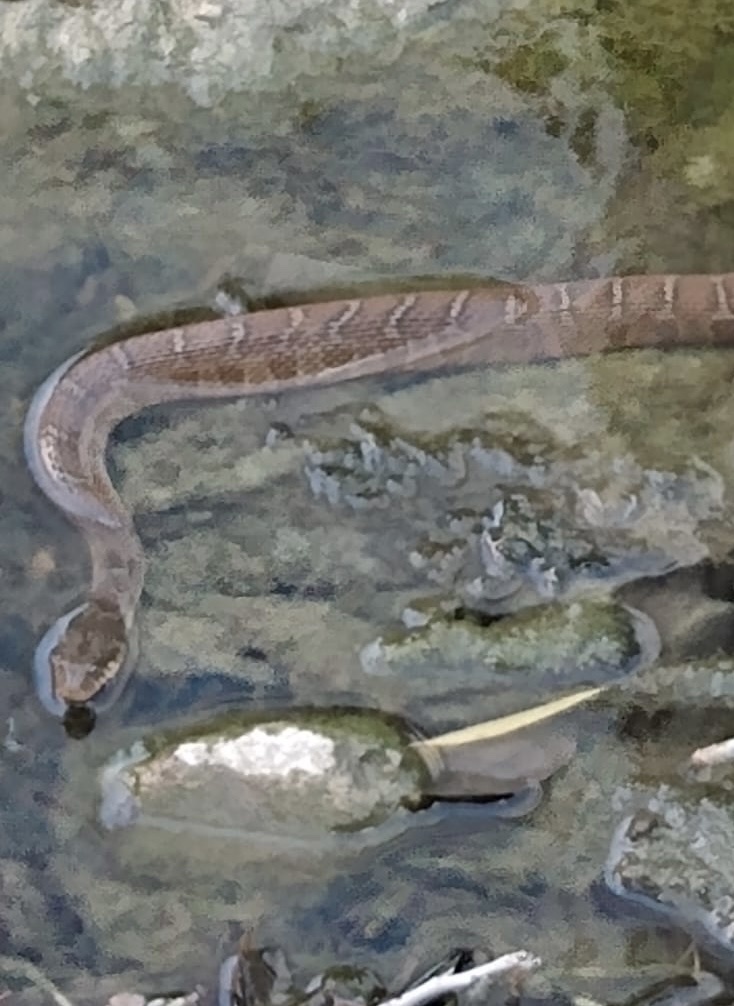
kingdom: Animalia
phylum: Chordata
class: Squamata
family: Colubridae
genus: Nerodia
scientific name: Nerodia erythrogaster
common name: Plainbelly water snake
